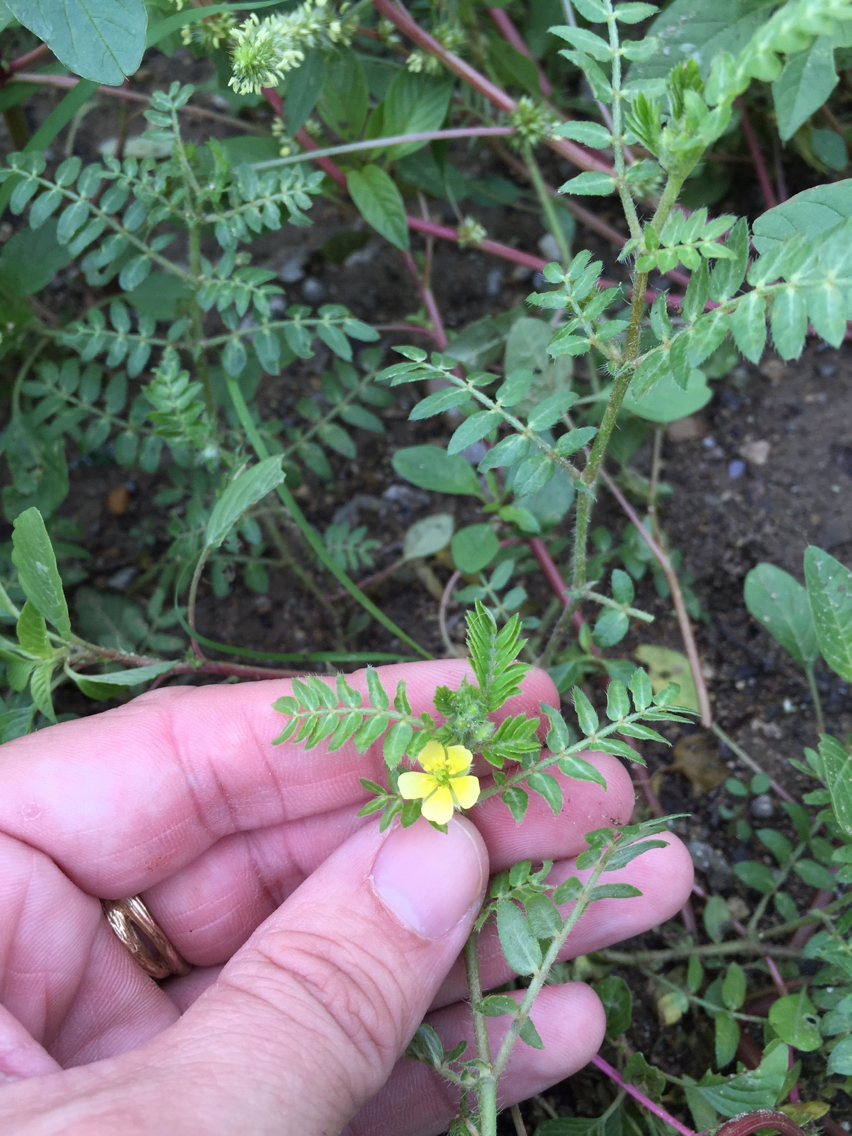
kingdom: Plantae
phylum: Tracheophyta
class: Magnoliopsida
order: Zygophyllales
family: Zygophyllaceae
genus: Tribulus
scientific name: Tribulus terrestris
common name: Puncturevine
